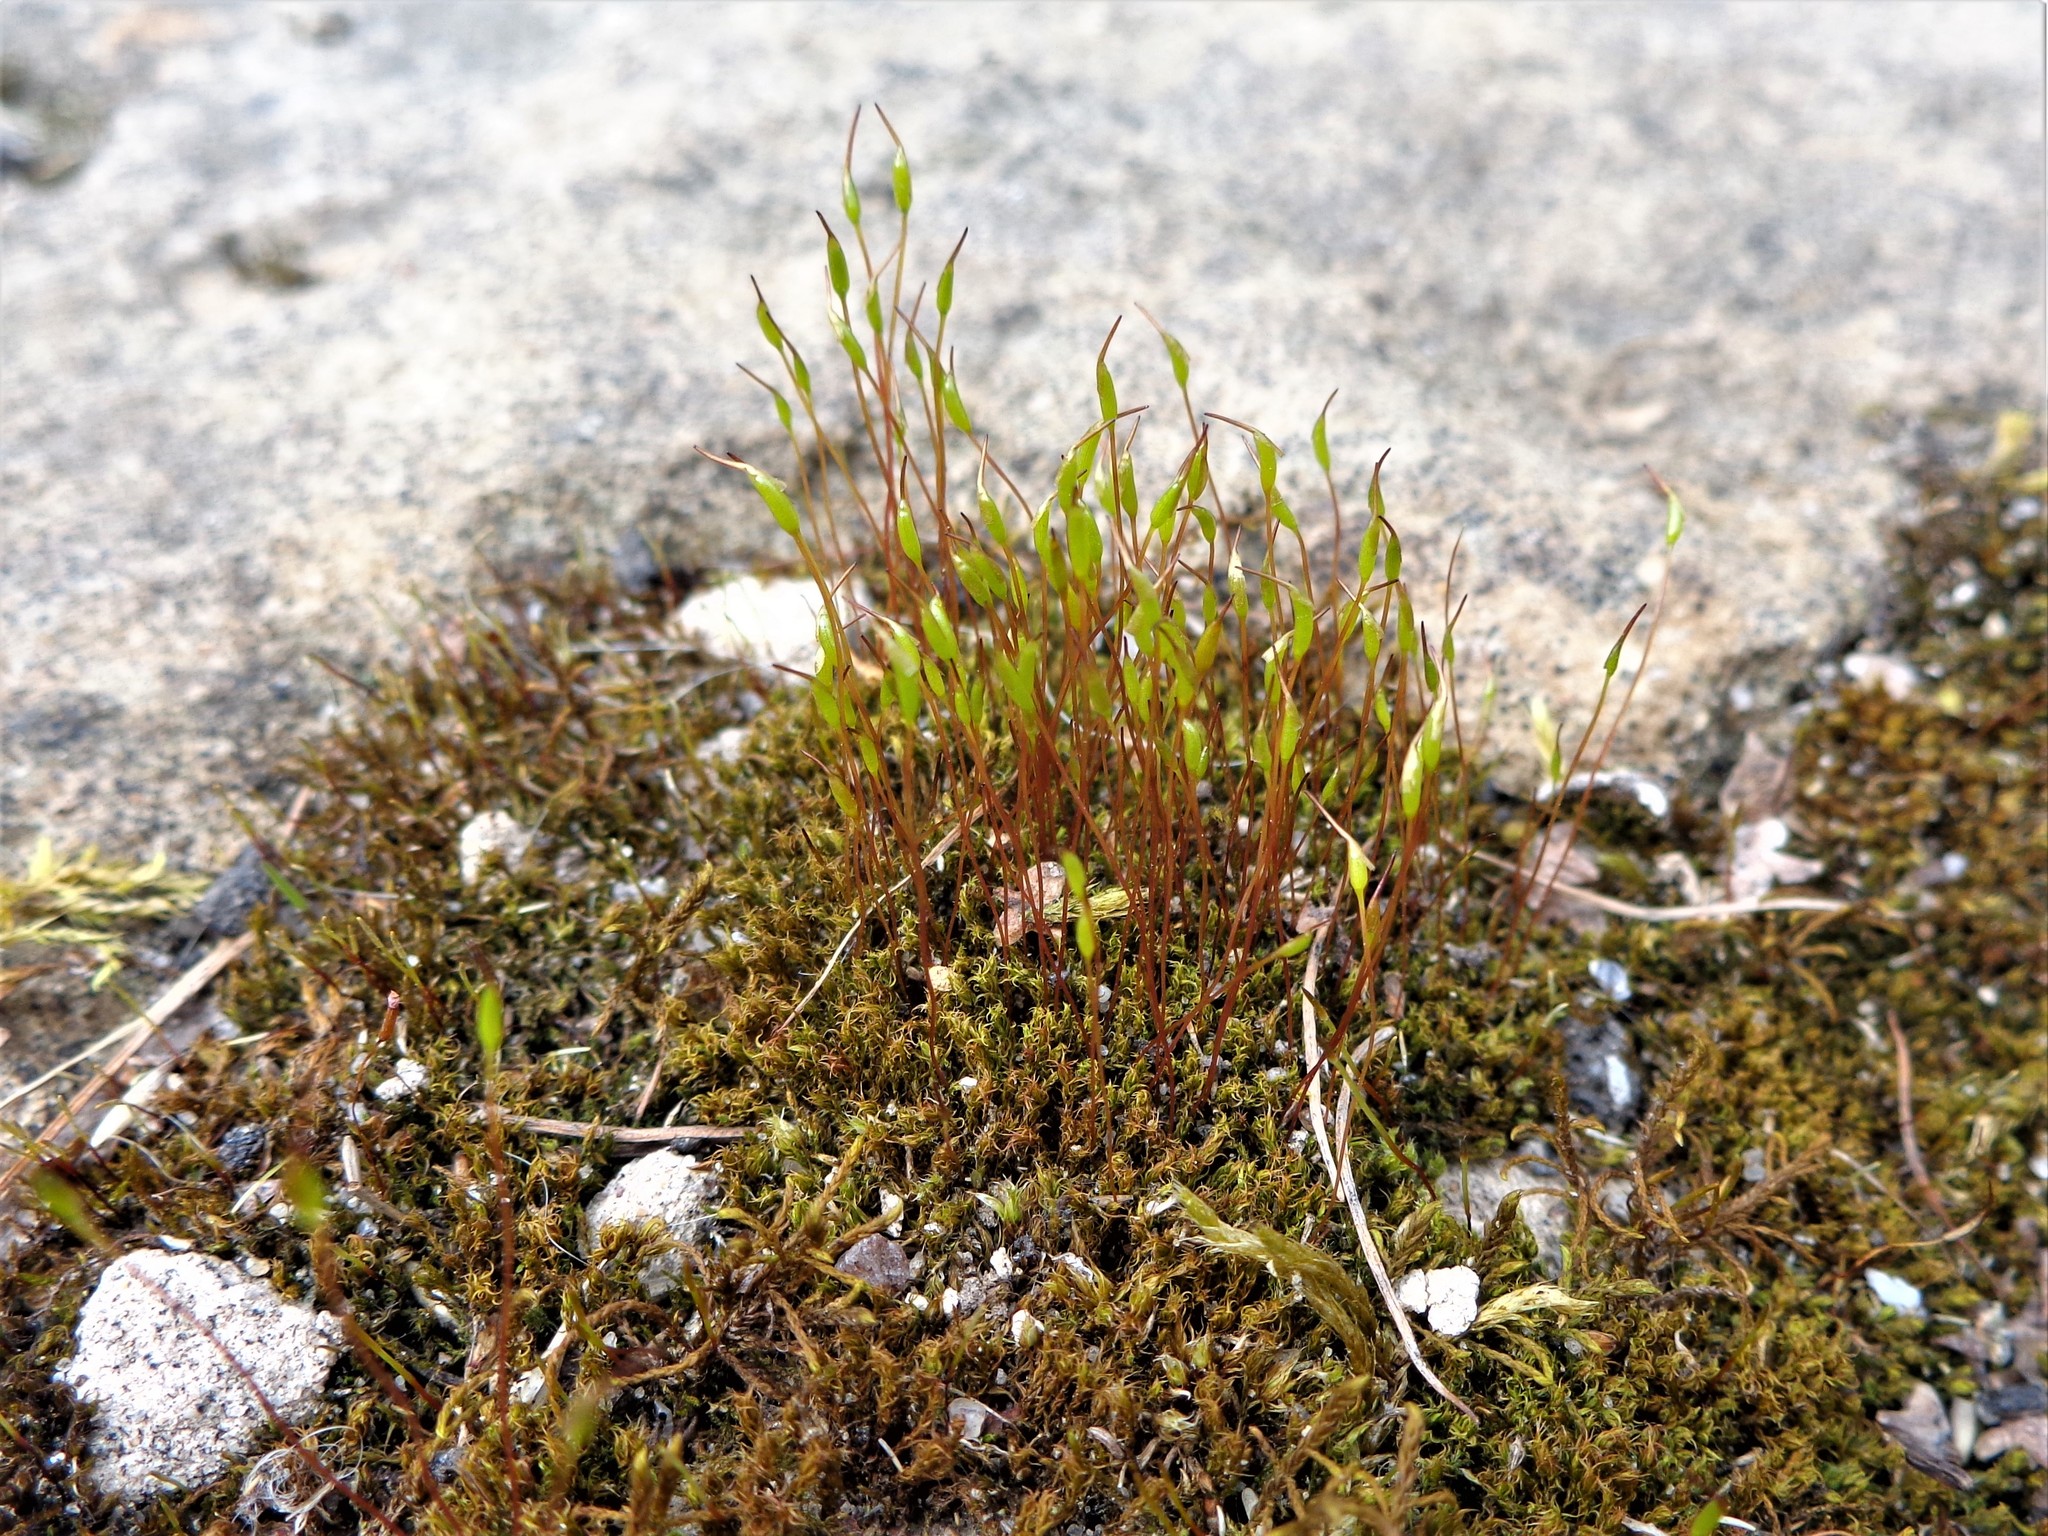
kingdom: Plantae
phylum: Bryophyta
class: Bryopsida
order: Dicranales
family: Ditrichaceae
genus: Ceratodon
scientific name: Ceratodon purpureus
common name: Redshank
